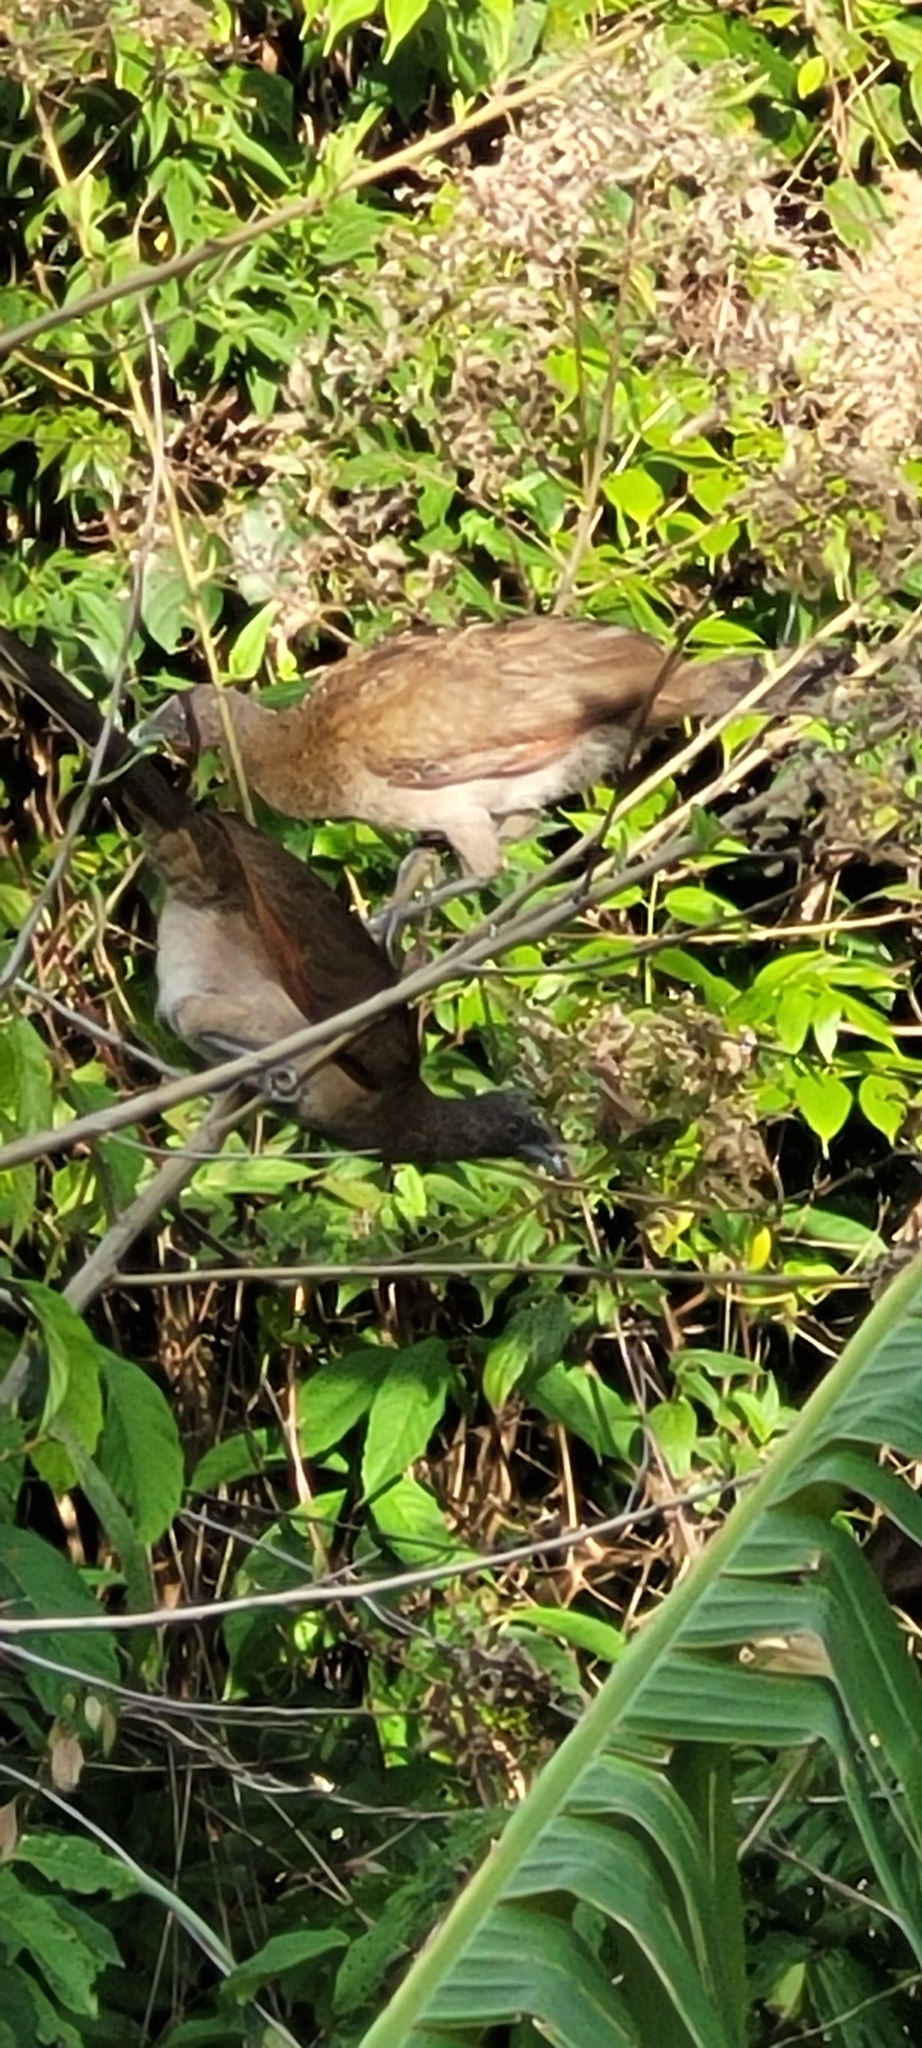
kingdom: Animalia
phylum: Chordata
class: Aves
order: Galliformes
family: Cracidae
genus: Ortalis
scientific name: Ortalis cinereiceps
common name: Grey-headed chachalaca
